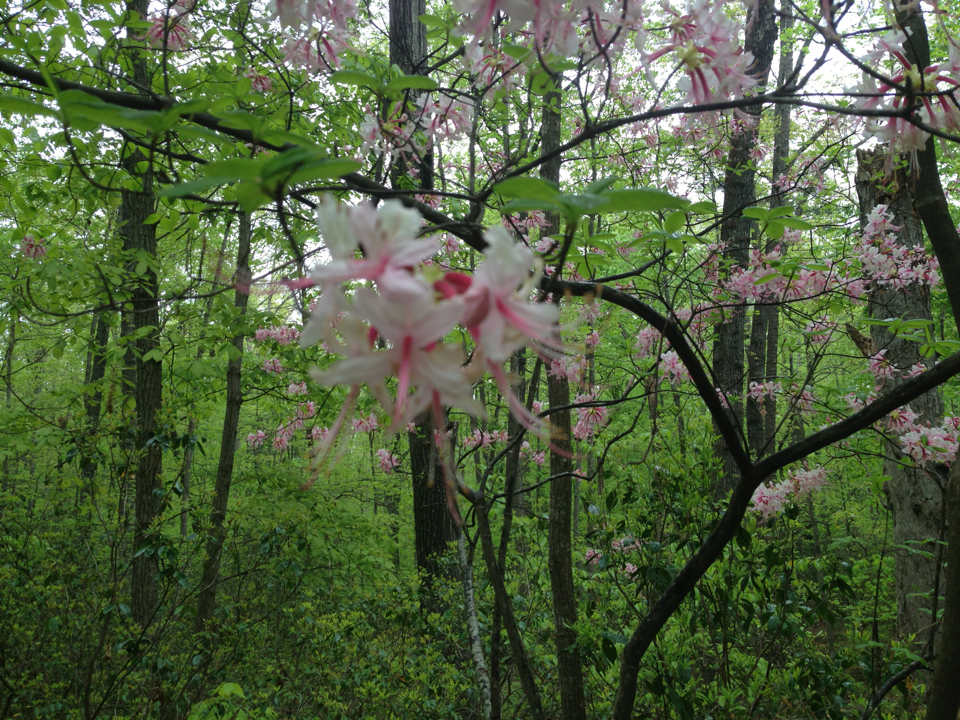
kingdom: Plantae
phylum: Tracheophyta
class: Magnoliopsida
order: Ericales
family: Ericaceae
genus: Rhododendron
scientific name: Rhododendron periclymenoides
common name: Election-pink
